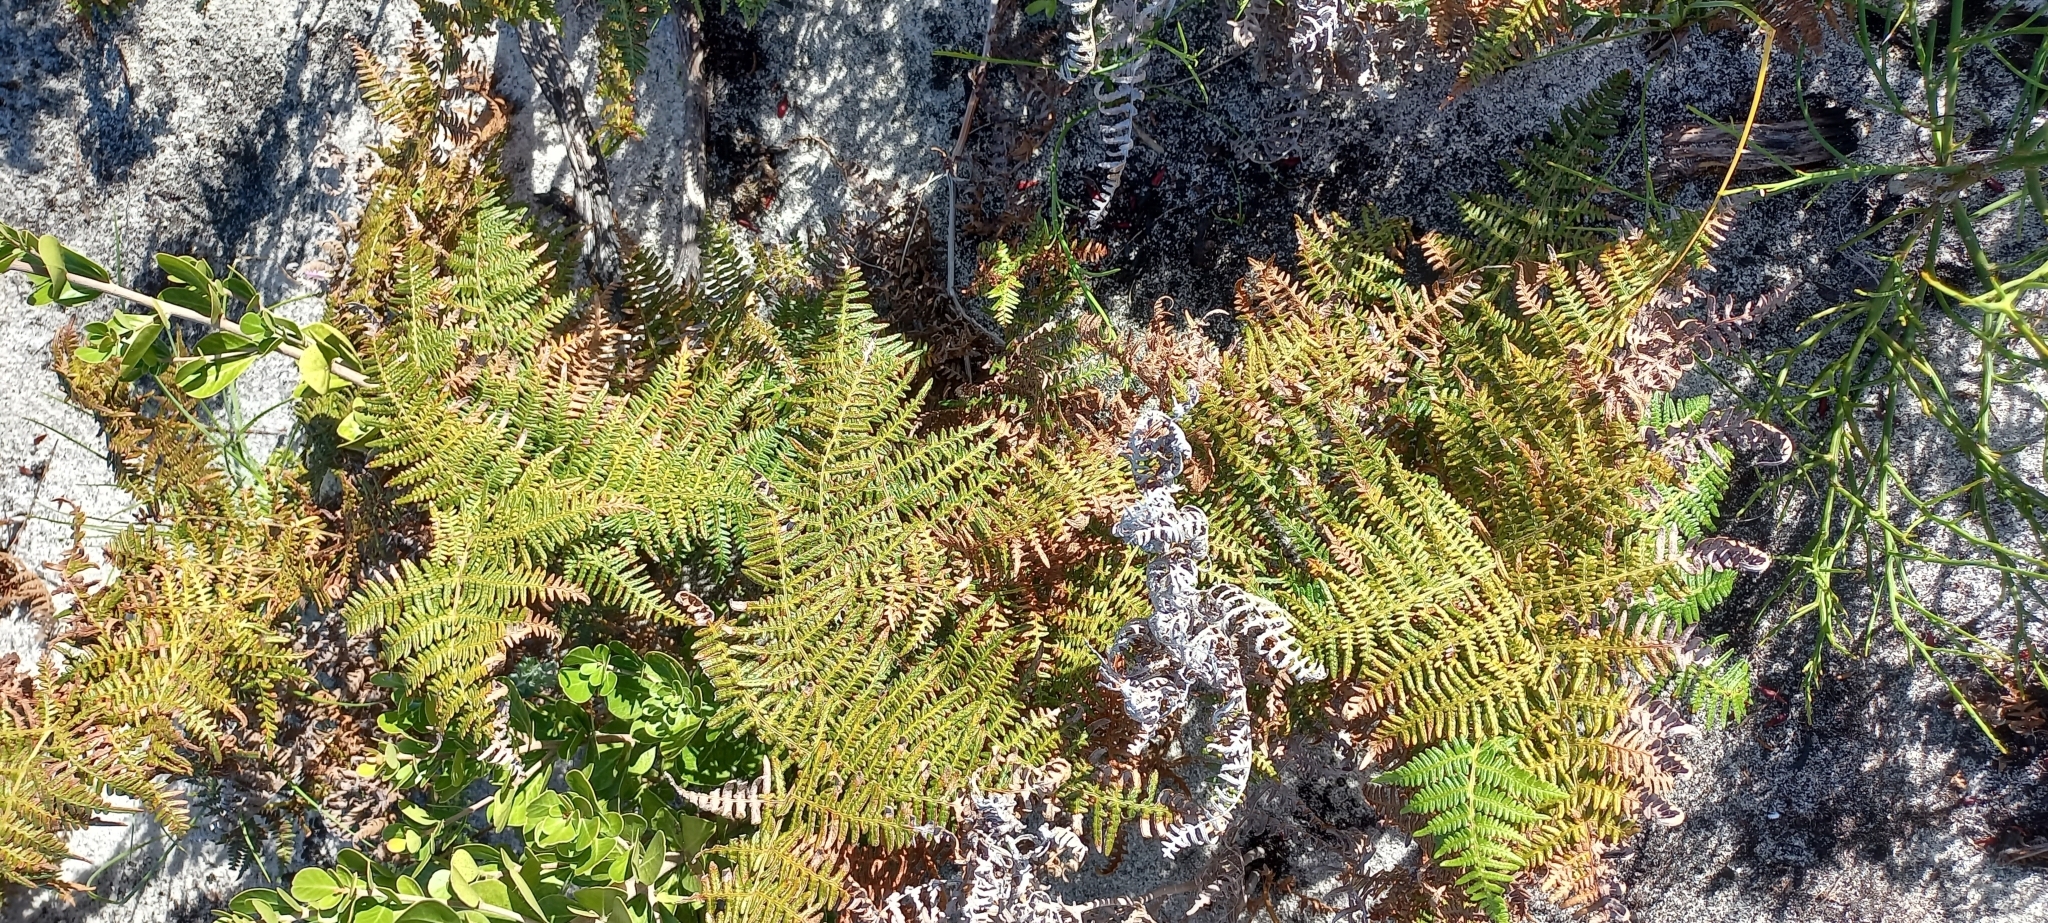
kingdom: Plantae
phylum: Tracheophyta
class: Polypodiopsida
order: Polypodiales
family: Dennstaedtiaceae
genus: Pteridium
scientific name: Pteridium aquilinum
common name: Bracken
